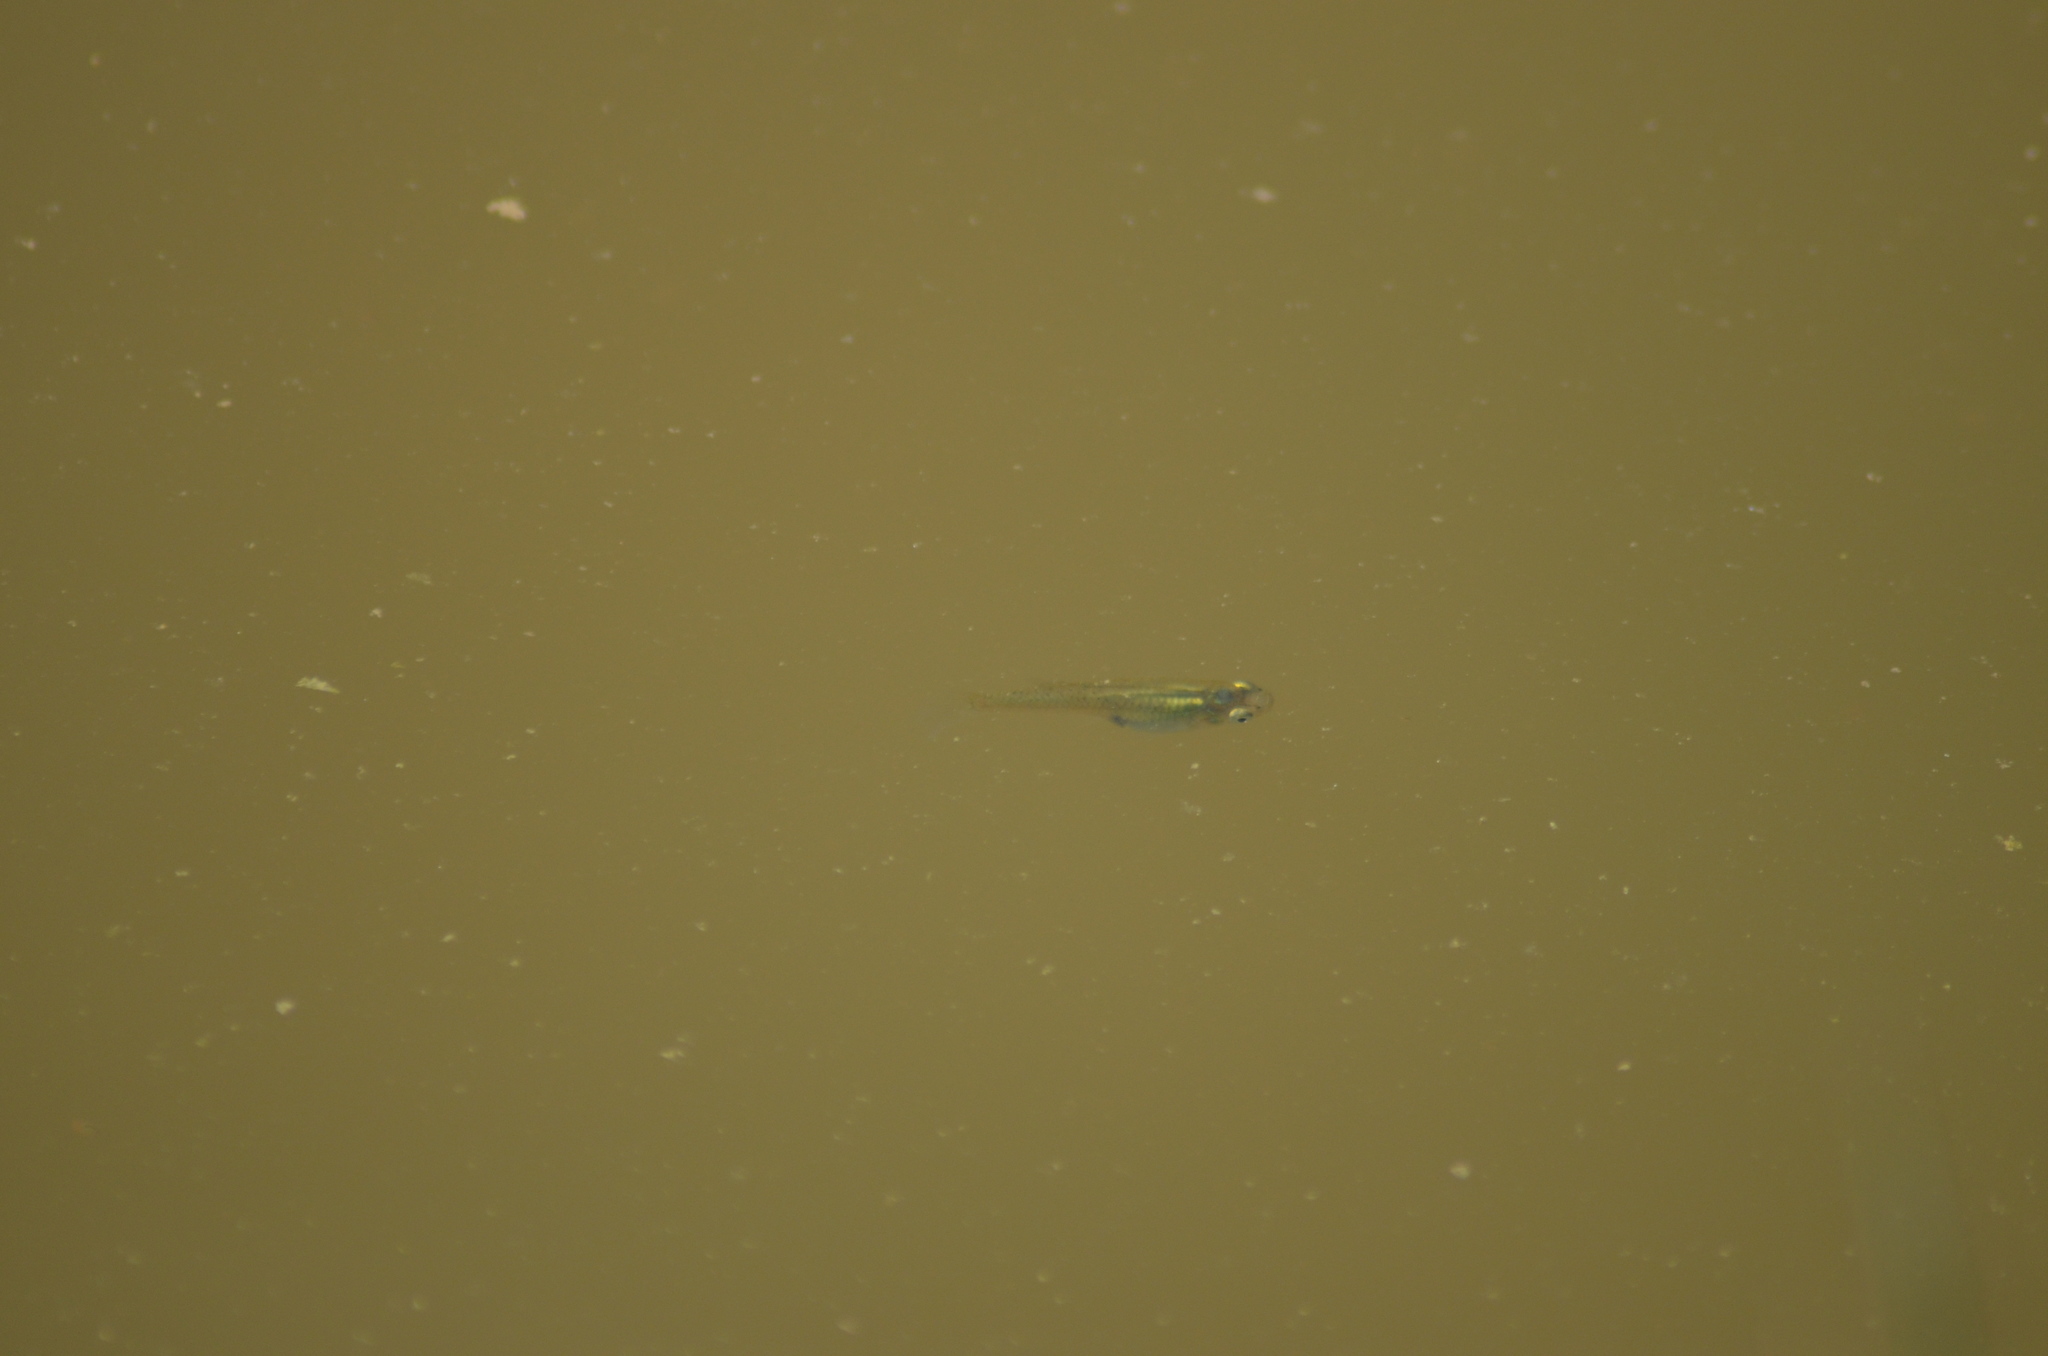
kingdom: Animalia
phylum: Chordata
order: Cyprinodontiformes
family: Poeciliidae
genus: Gambusia
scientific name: Gambusia holbrooki
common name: Eastern mosquitofish
